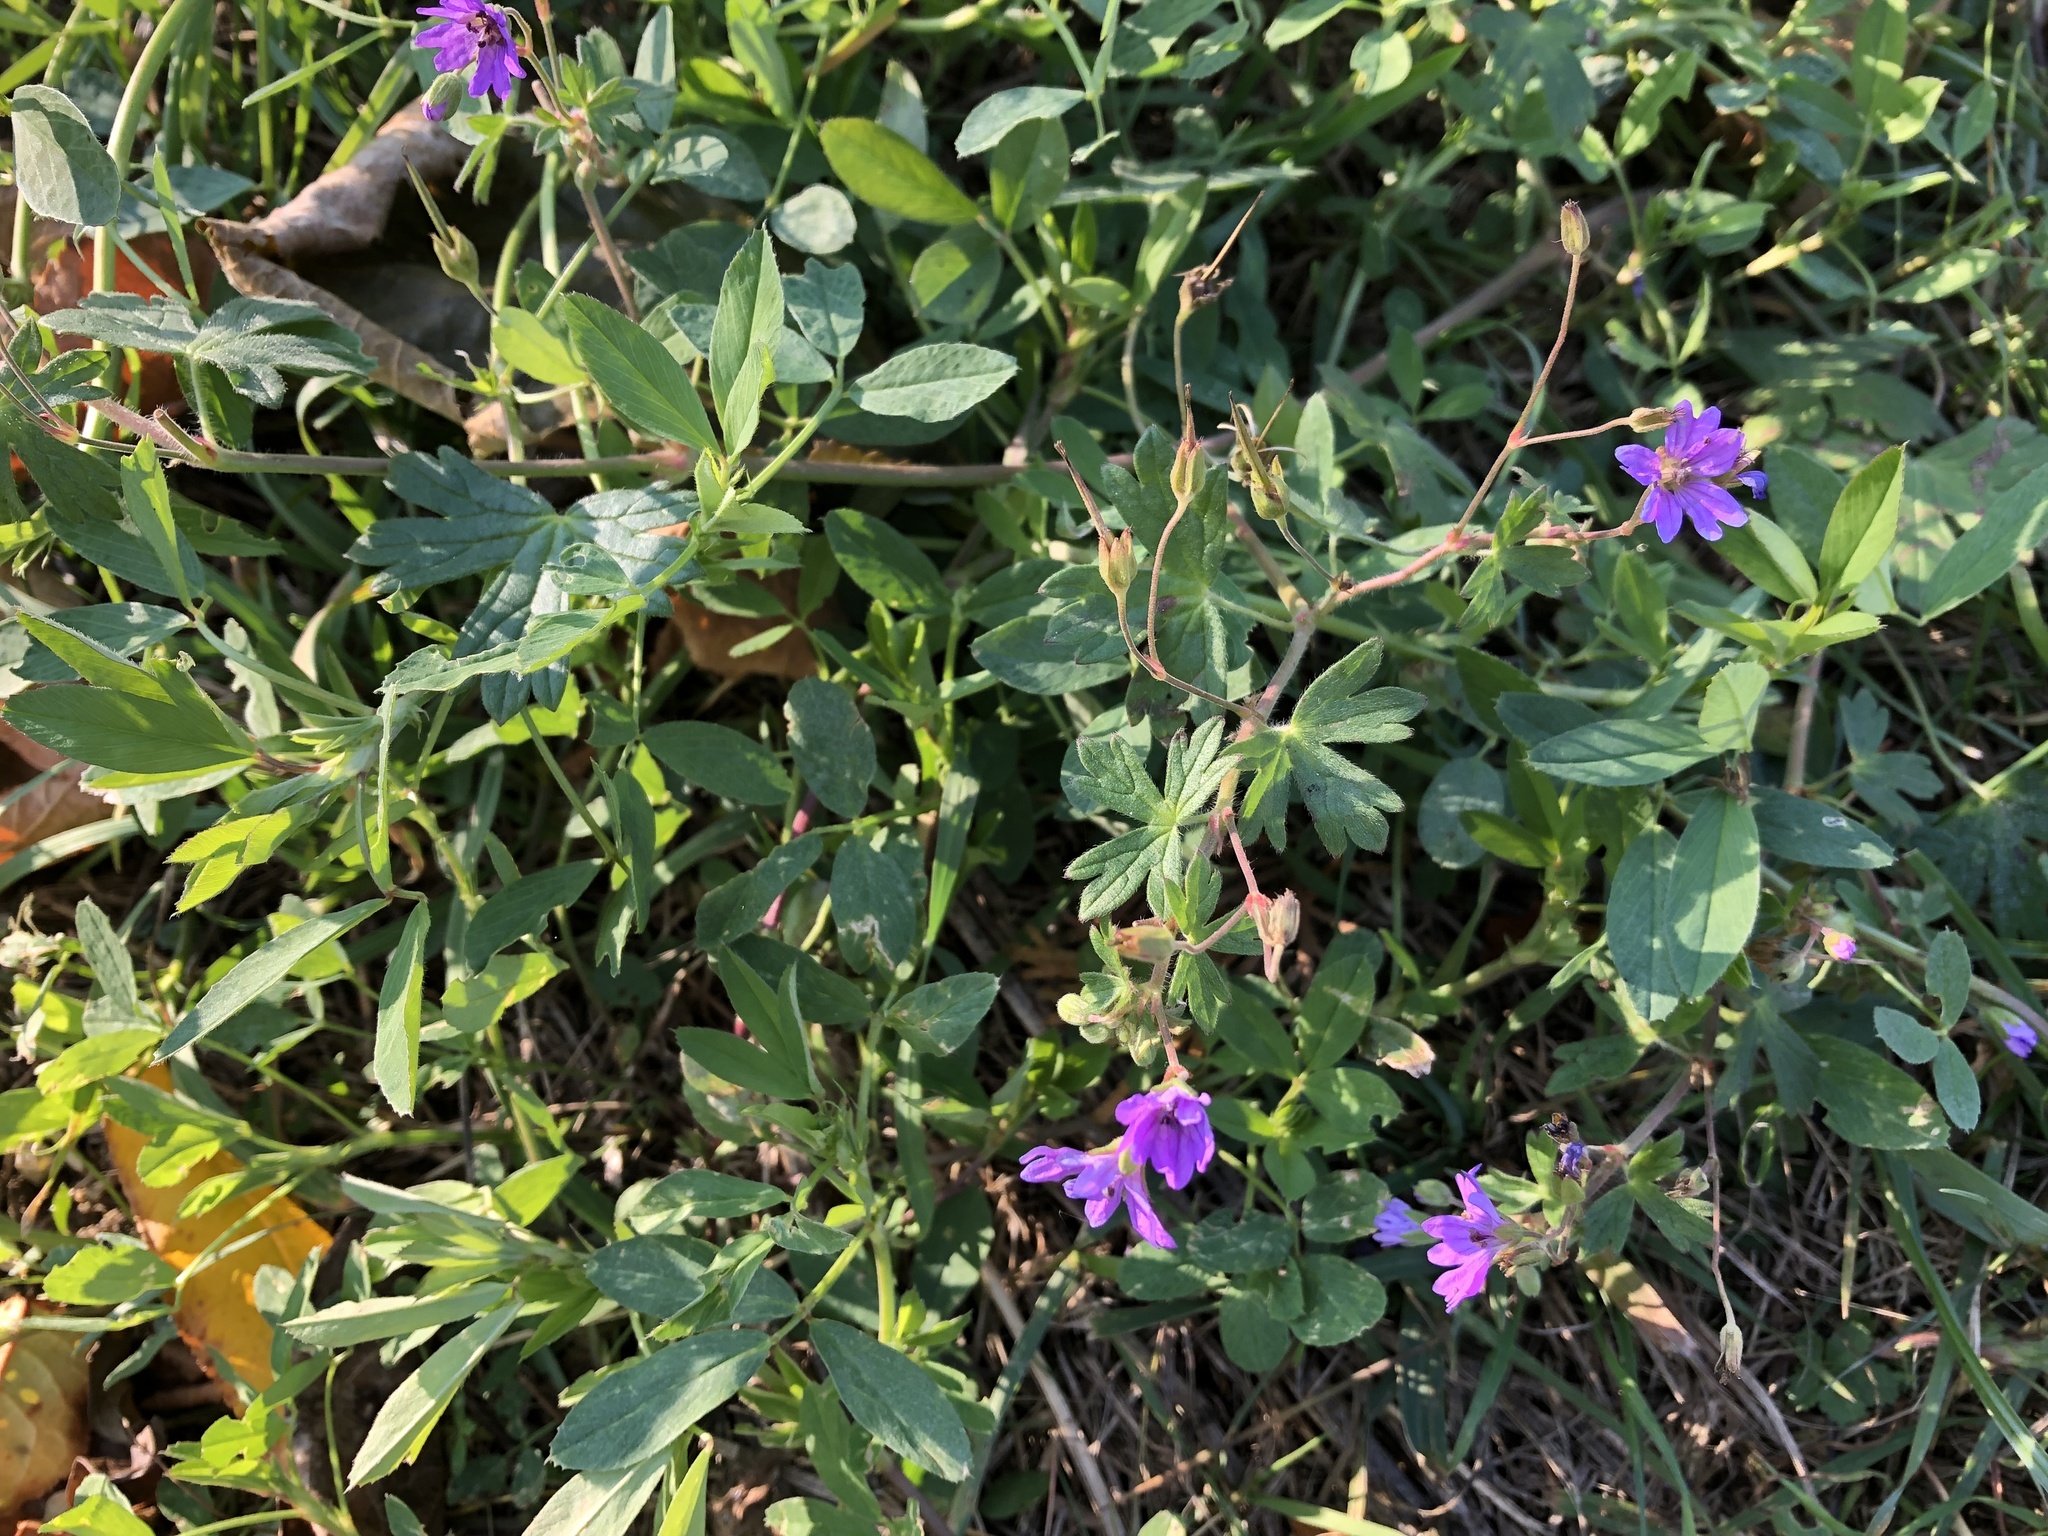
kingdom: Plantae
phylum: Tracheophyta
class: Magnoliopsida
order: Geraniales
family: Geraniaceae
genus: Geranium
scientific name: Geranium pyrenaicum
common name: Hedgerow crane's-bill
